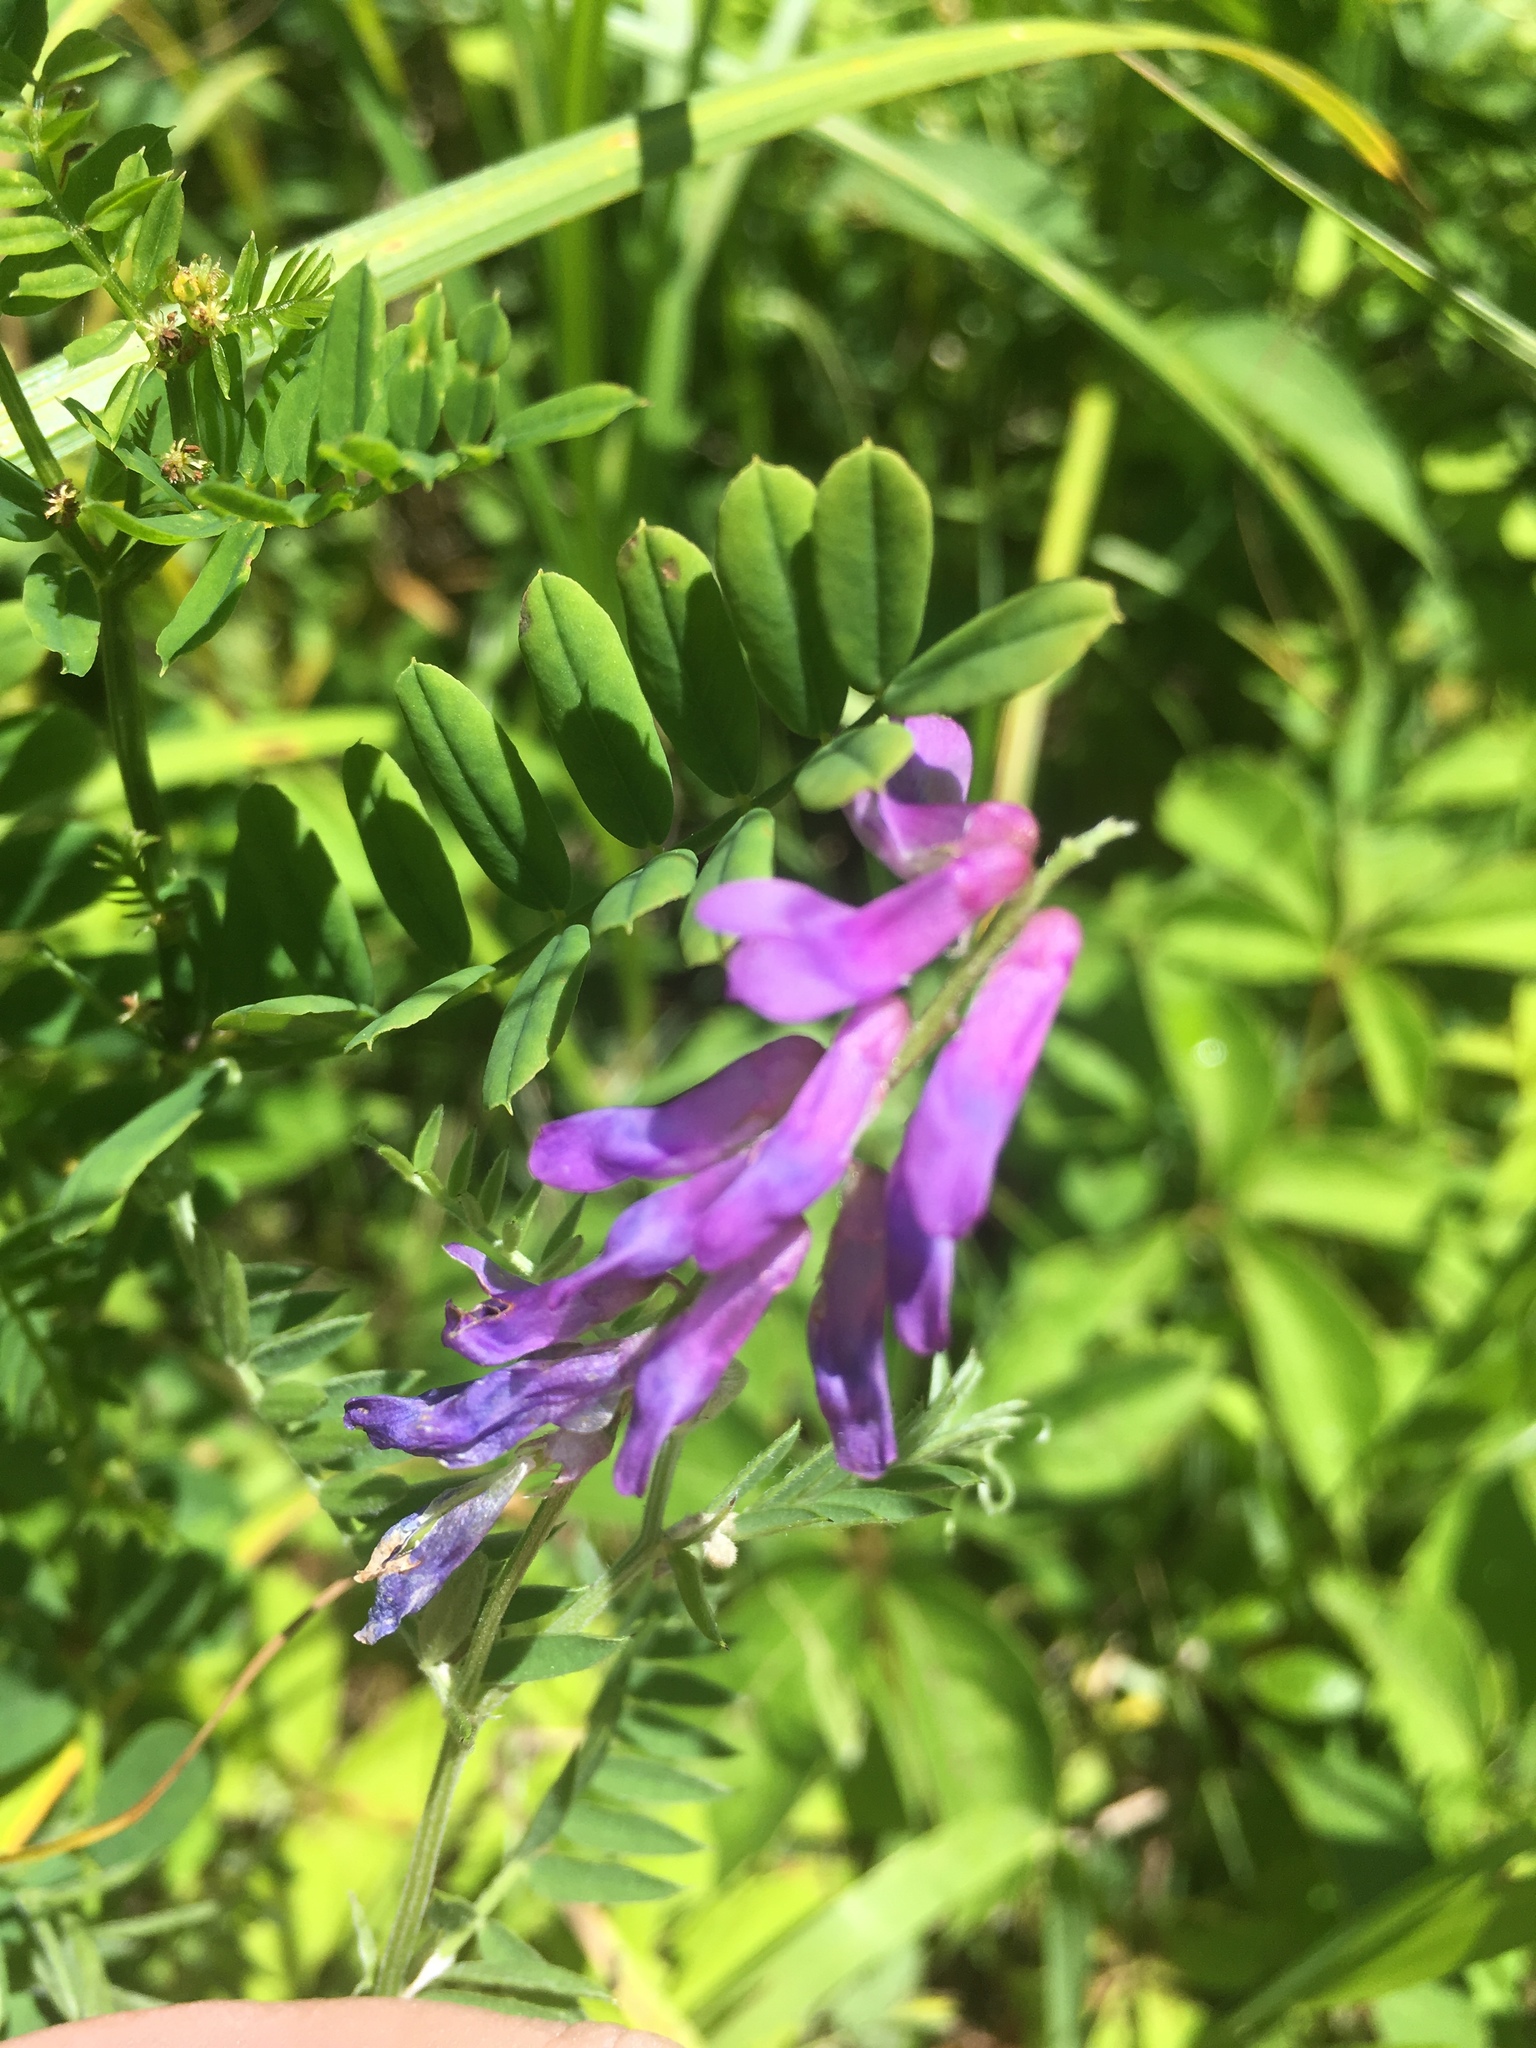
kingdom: Plantae
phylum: Tracheophyta
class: Magnoliopsida
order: Fabales
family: Fabaceae
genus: Vicia
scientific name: Vicia cracca
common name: Bird vetch
